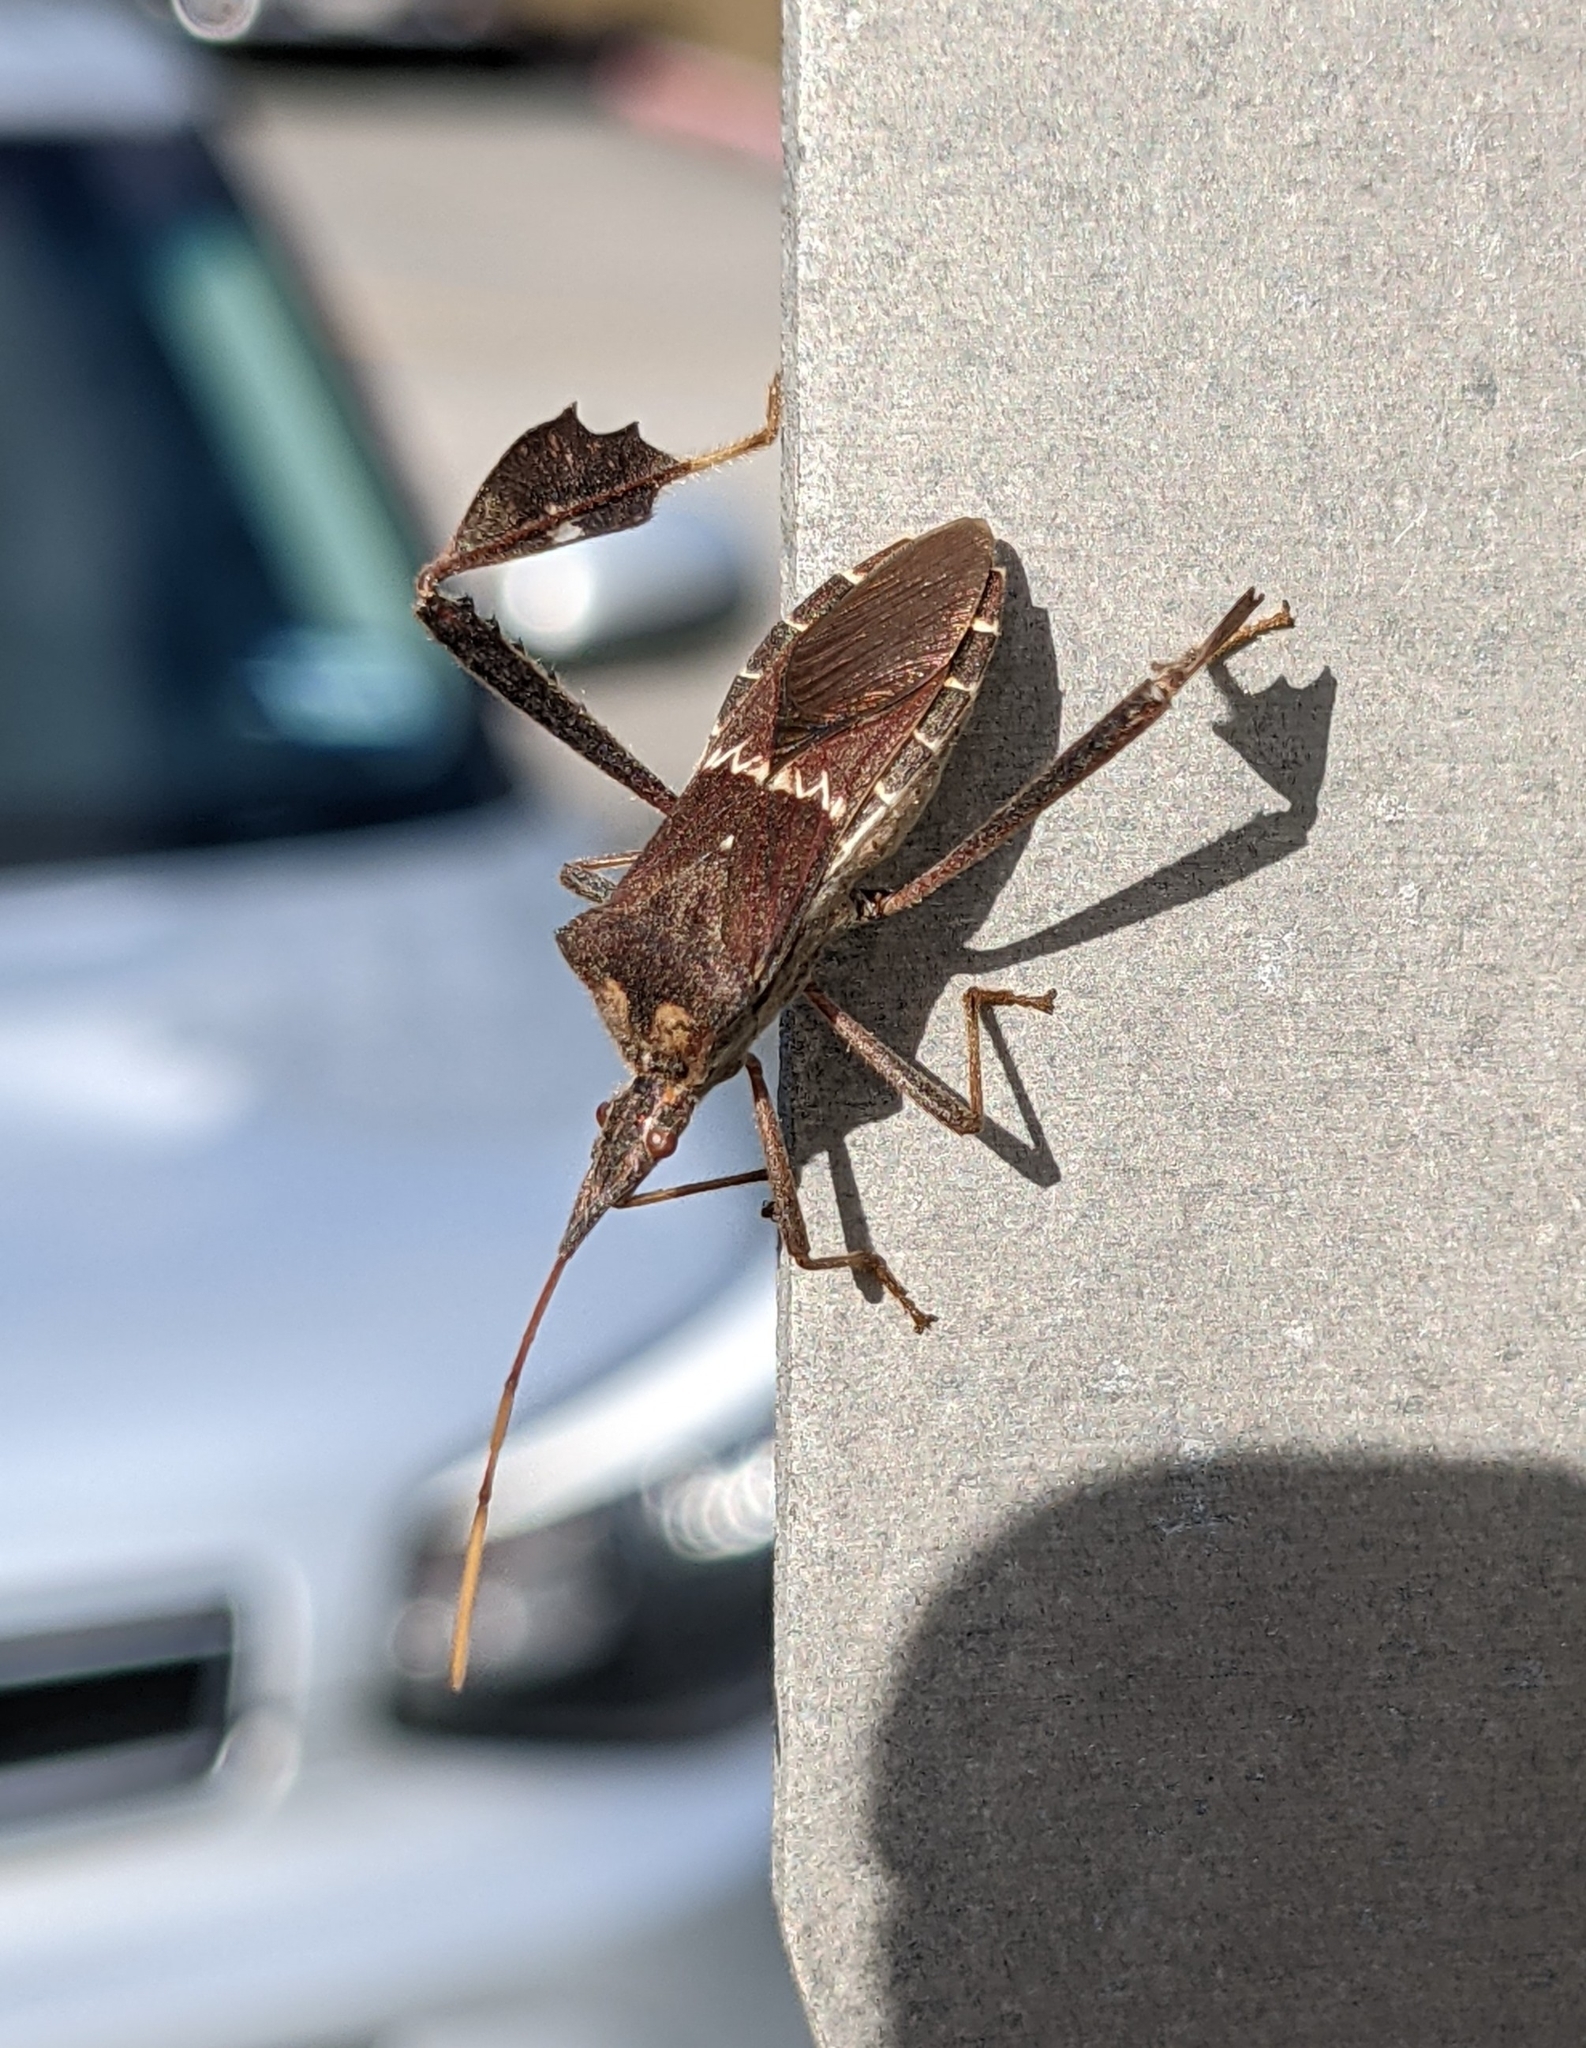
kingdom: Animalia
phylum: Arthropoda
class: Insecta
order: Hemiptera
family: Coreidae
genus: Leptoglossus
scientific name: Leptoglossus zonatus
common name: Large-legged bug
